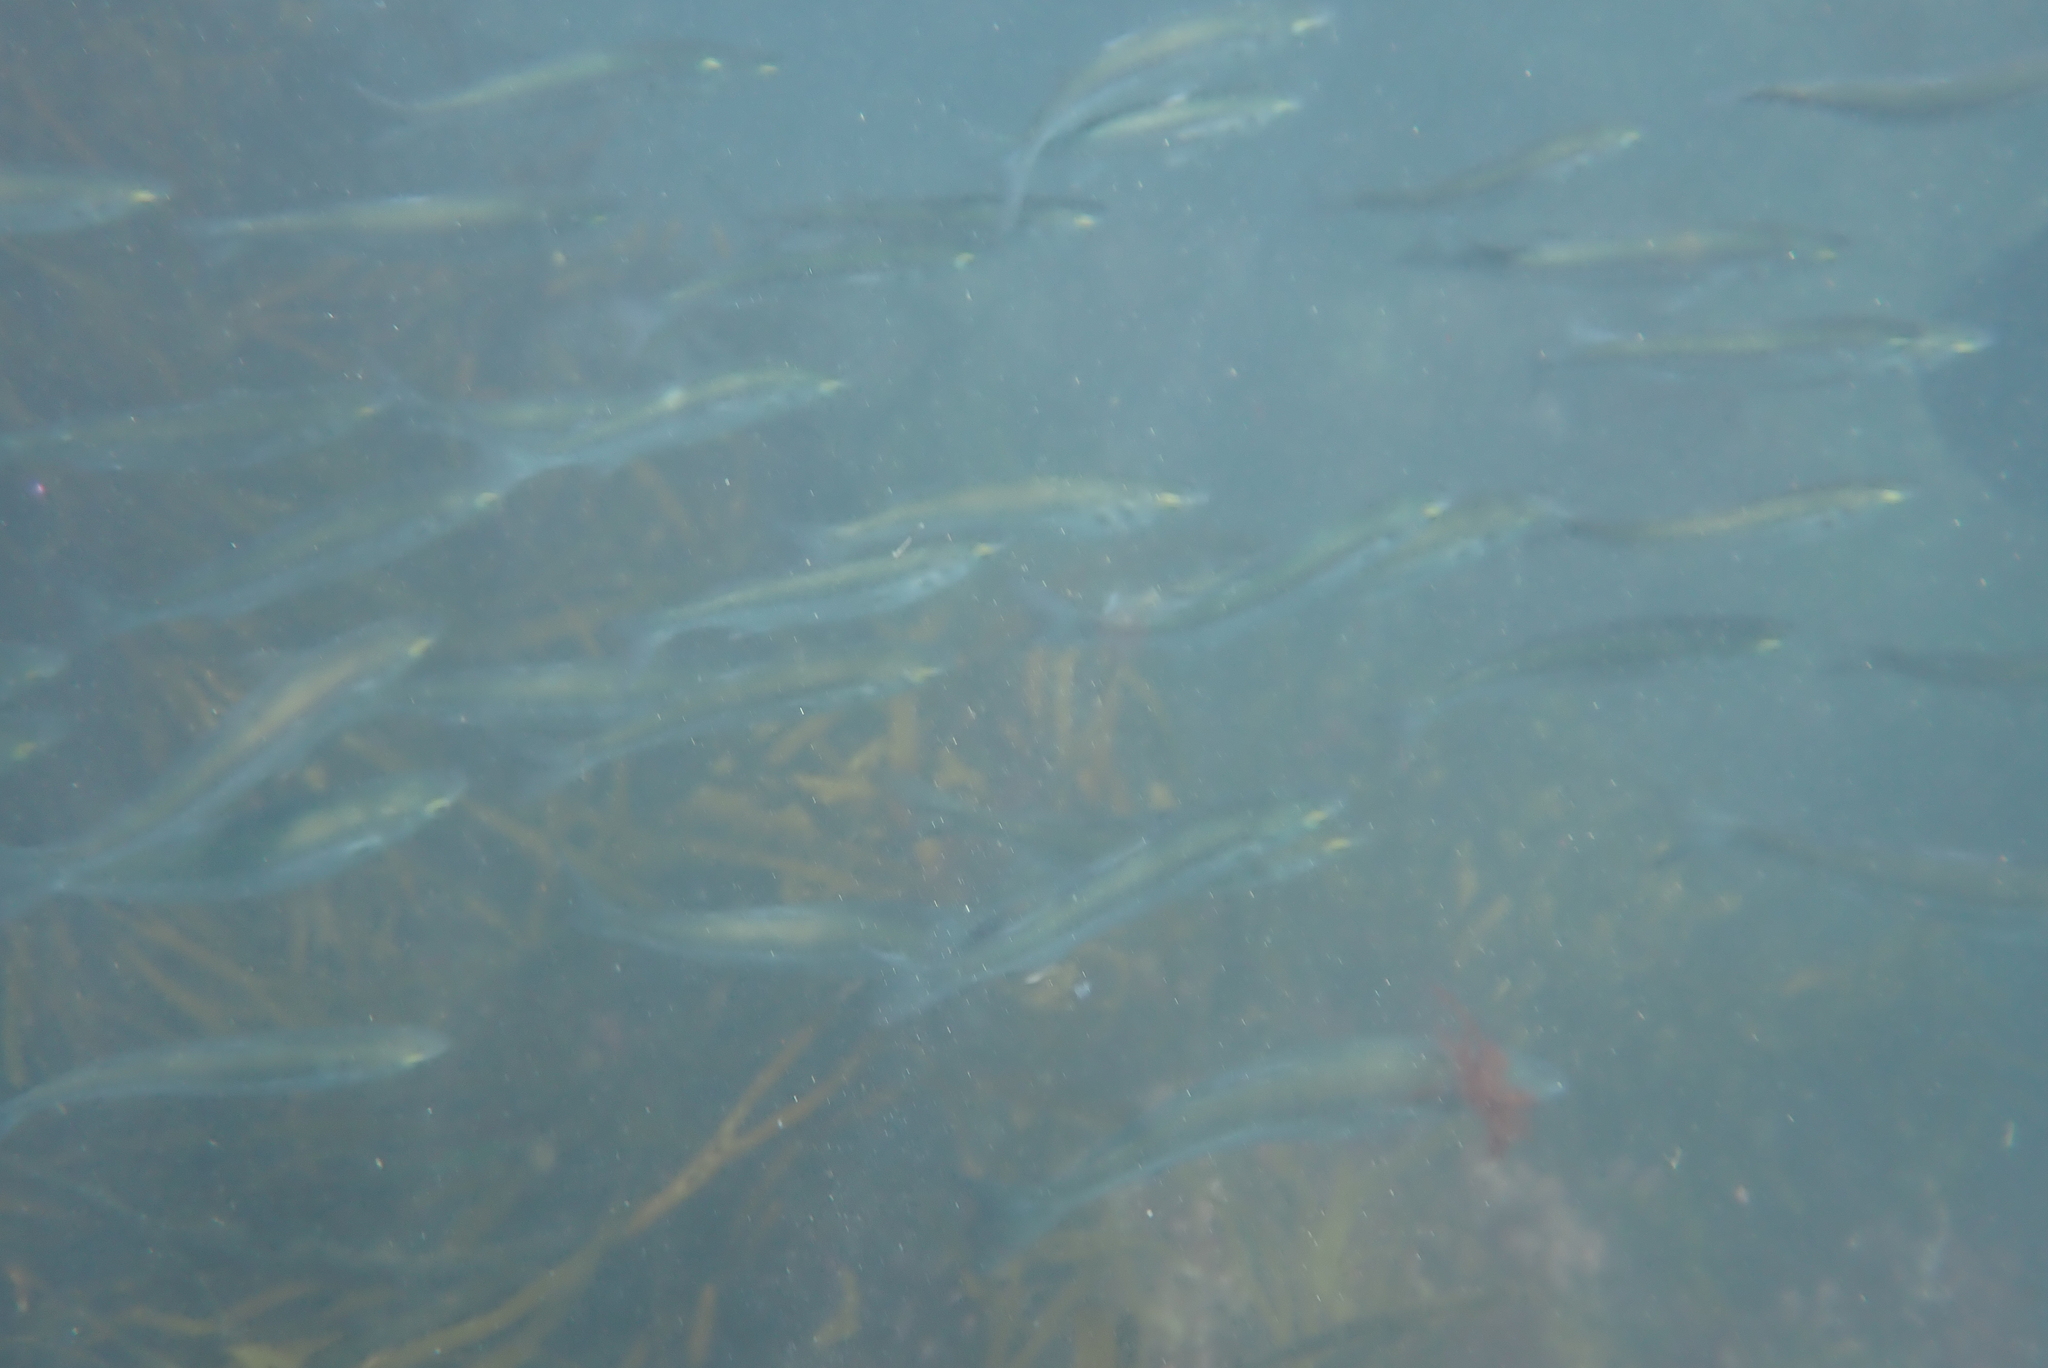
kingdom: Animalia
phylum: Chordata
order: Mugiliformes
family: Mugilidae
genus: Aldrichetta
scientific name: Aldrichetta forsteri
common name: Yellow-eye mullet
